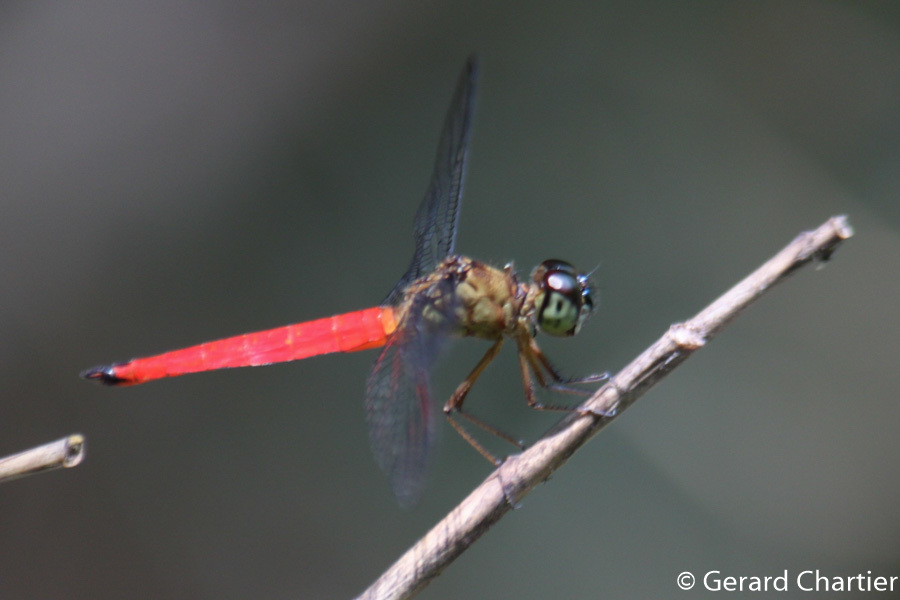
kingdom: Animalia
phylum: Arthropoda
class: Insecta
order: Odonata
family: Libellulidae
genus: Orchithemis
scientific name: Orchithemis pulcherrima
